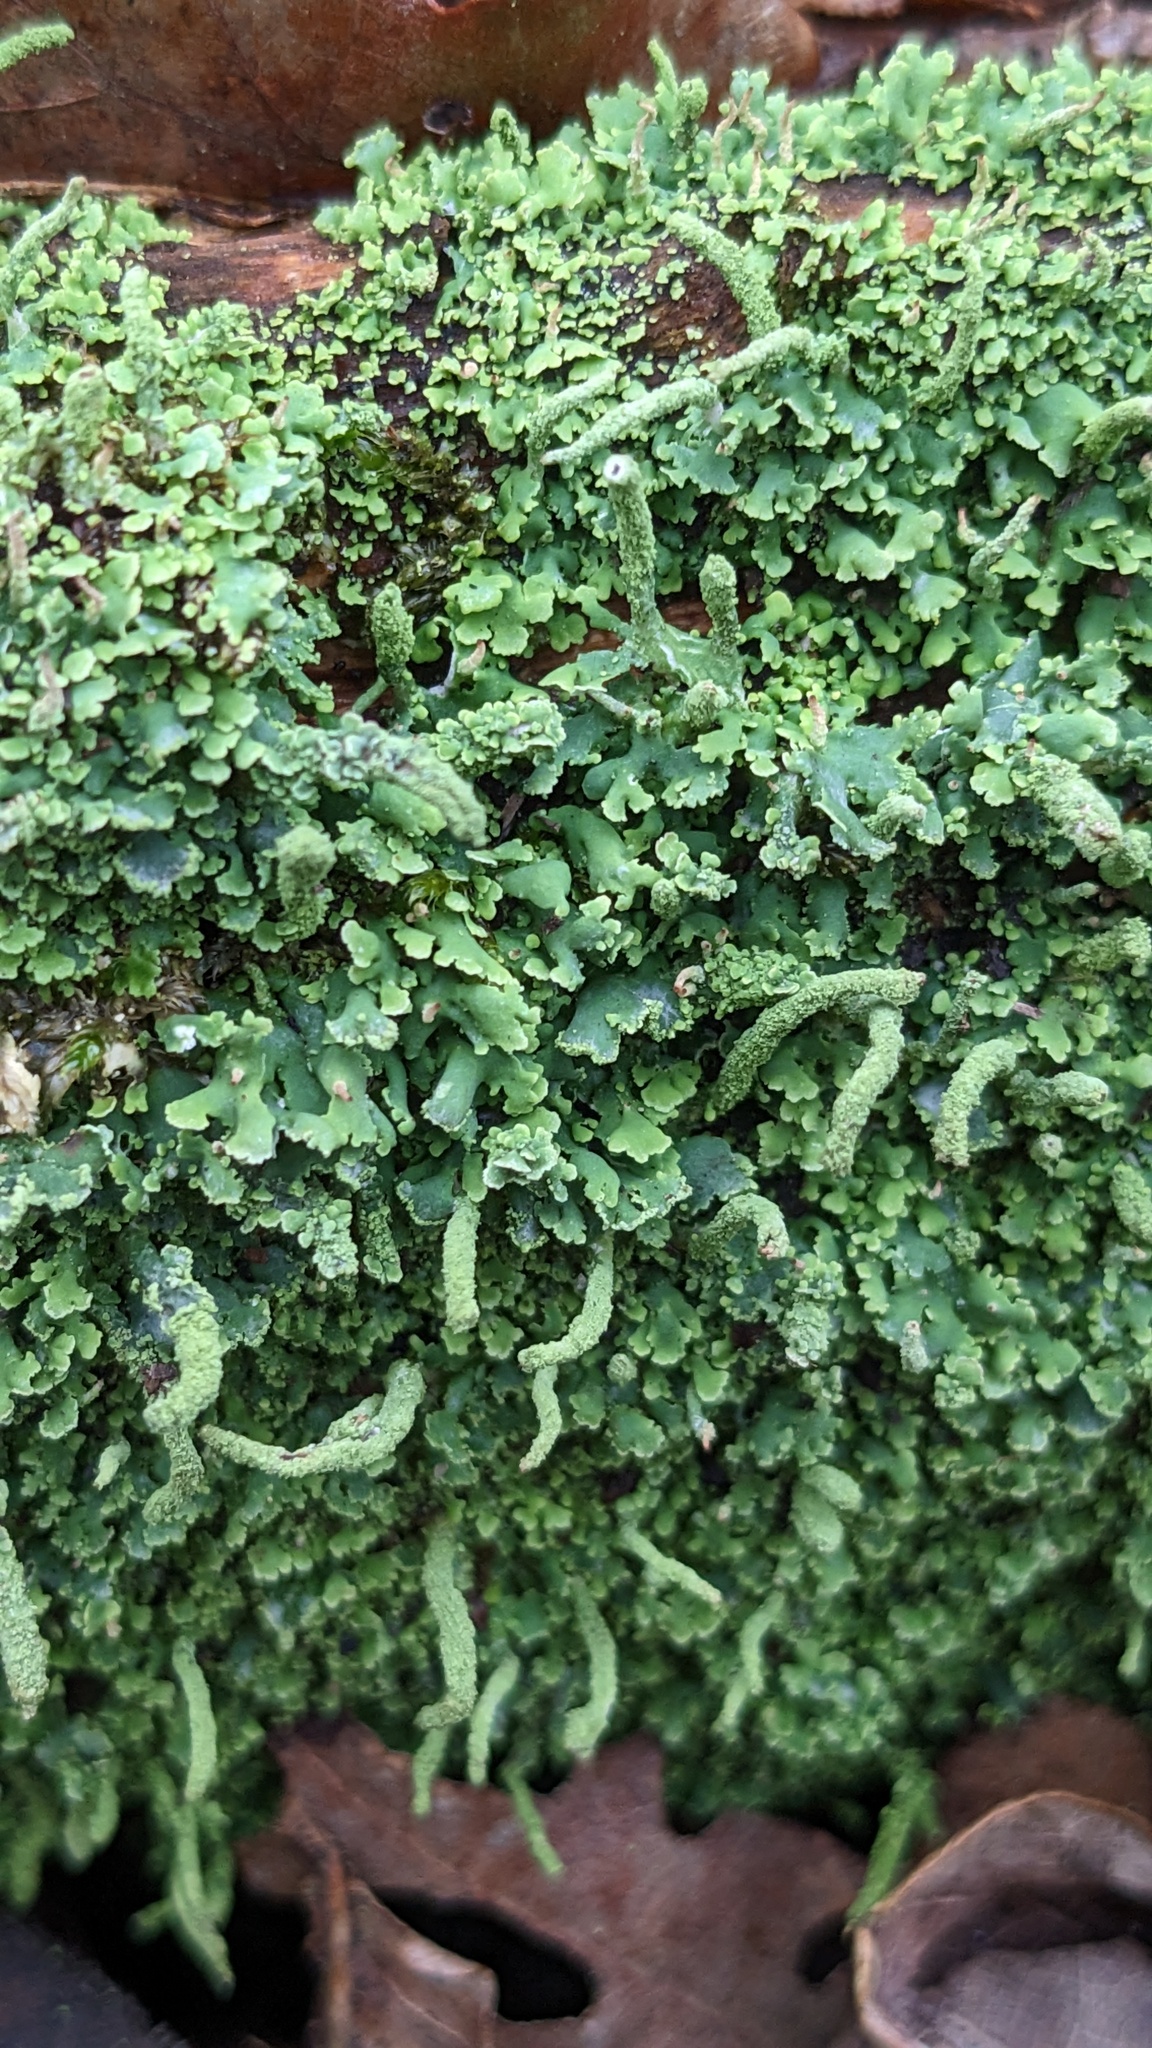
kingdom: Fungi
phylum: Ascomycota
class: Lecanoromycetes
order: Lecanorales
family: Cladoniaceae
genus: Cladonia
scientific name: Cladonia coniocraea
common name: Common powderhorn
